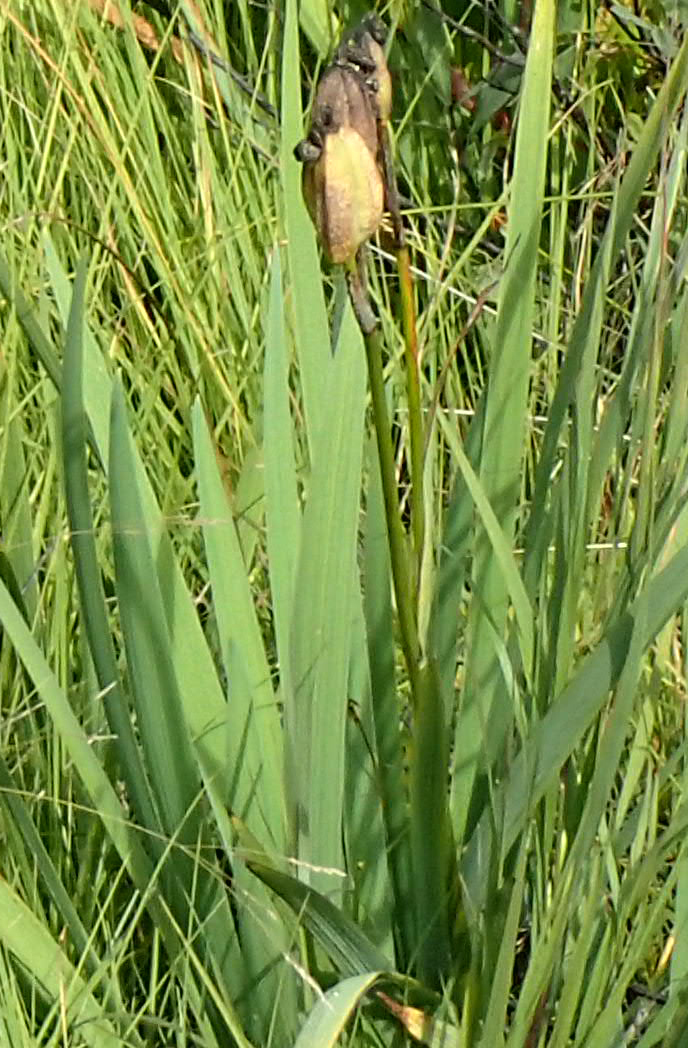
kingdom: Plantae
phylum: Tracheophyta
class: Liliopsida
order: Asparagales
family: Iridaceae
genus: Iris
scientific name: Iris setosa
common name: Arctic blue flag
